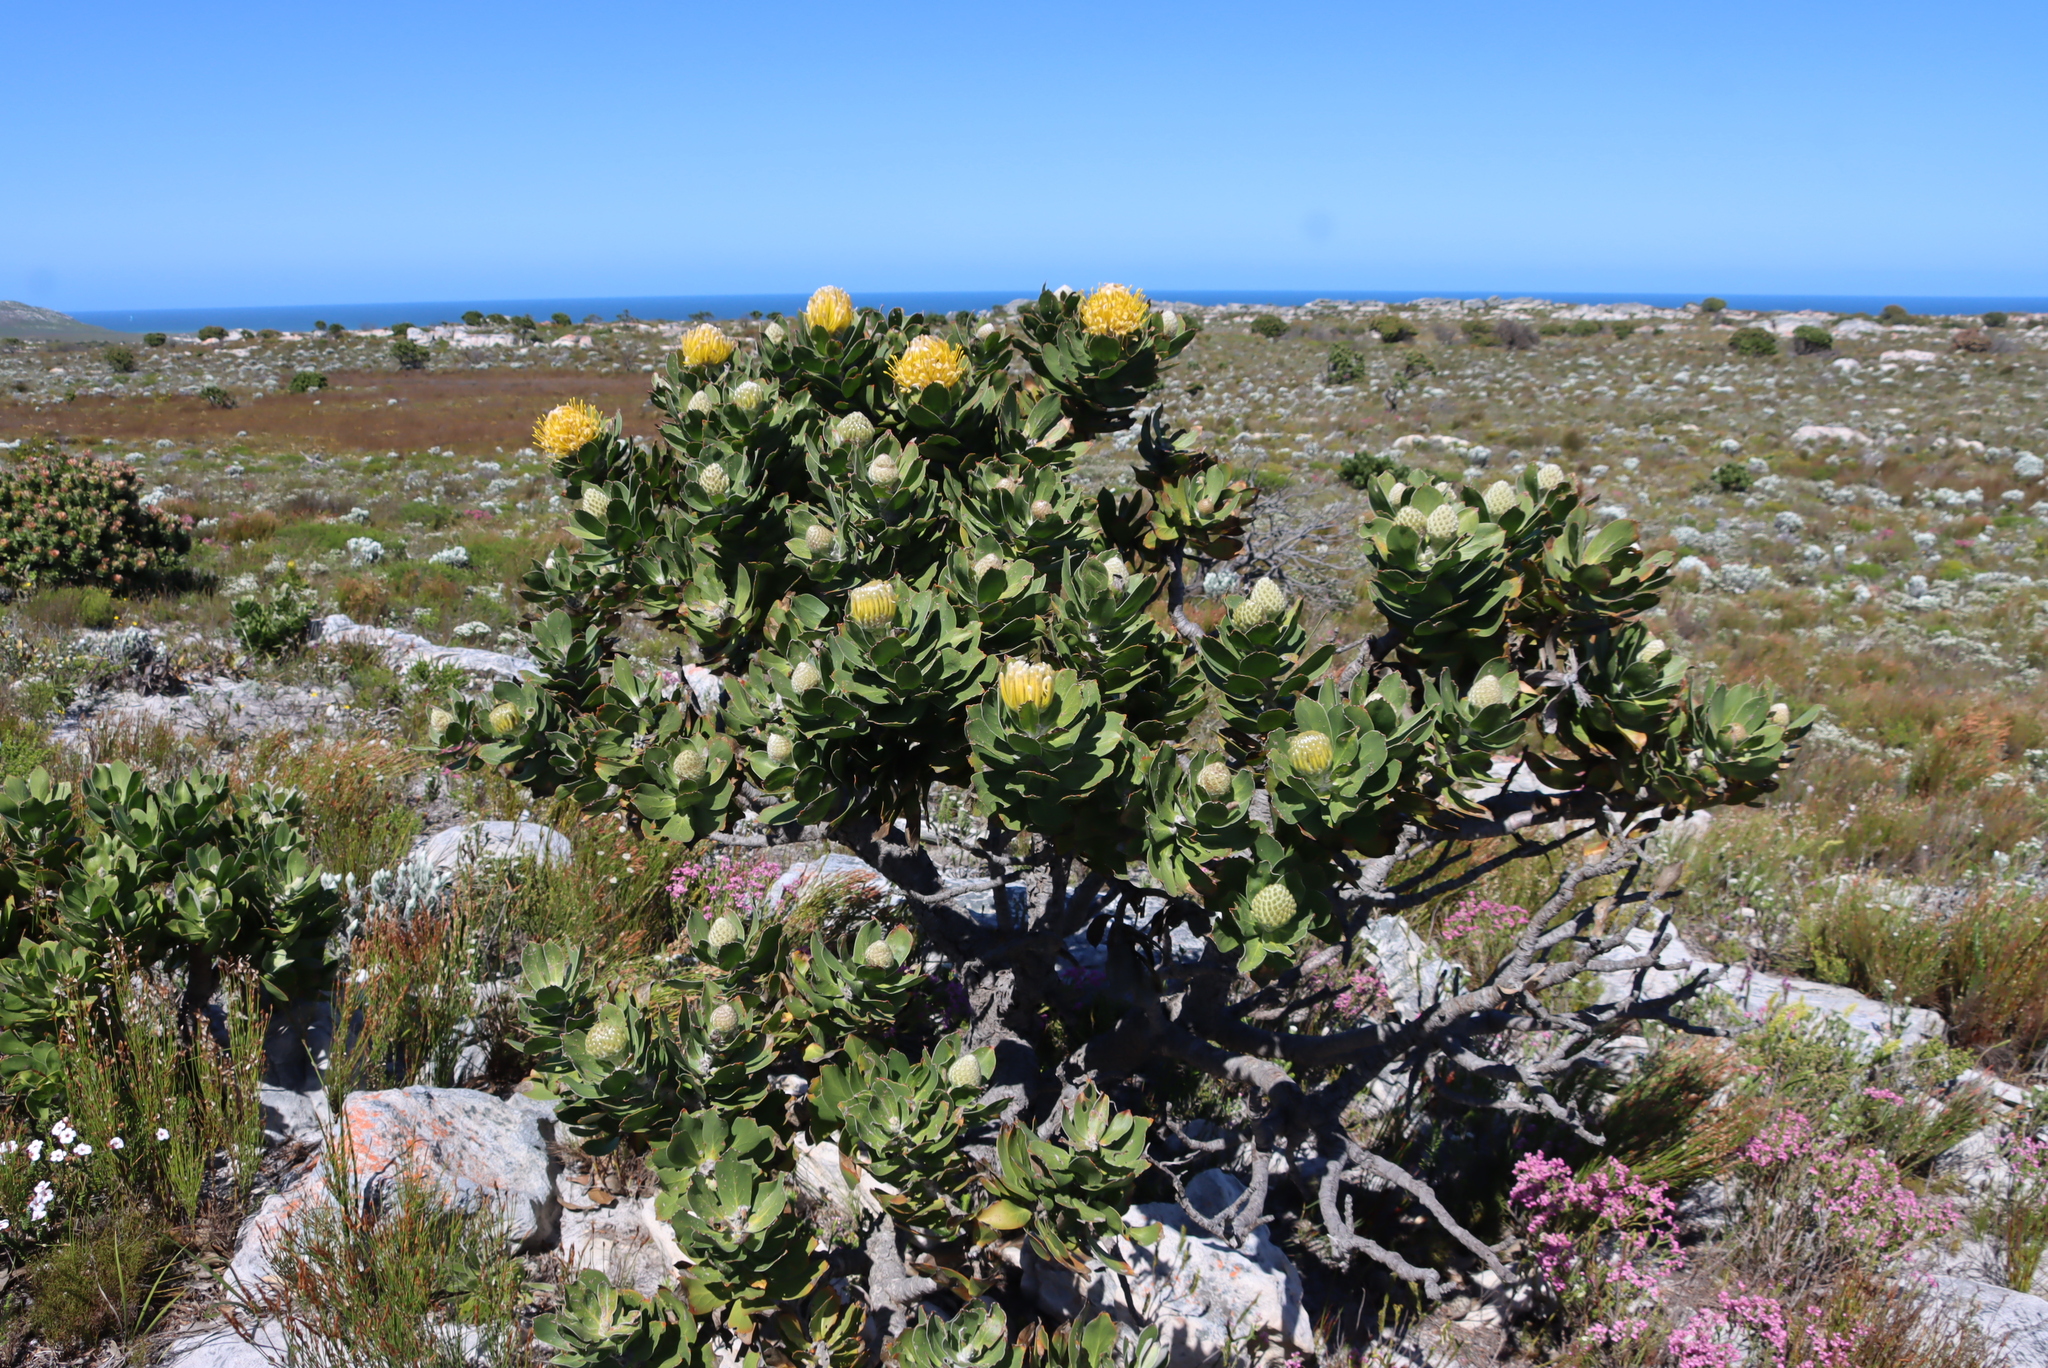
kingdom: Plantae
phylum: Tracheophyta
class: Magnoliopsida
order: Proteales
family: Proteaceae
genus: Leucospermum
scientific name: Leucospermum conocarpodendron
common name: Tree pincushion
